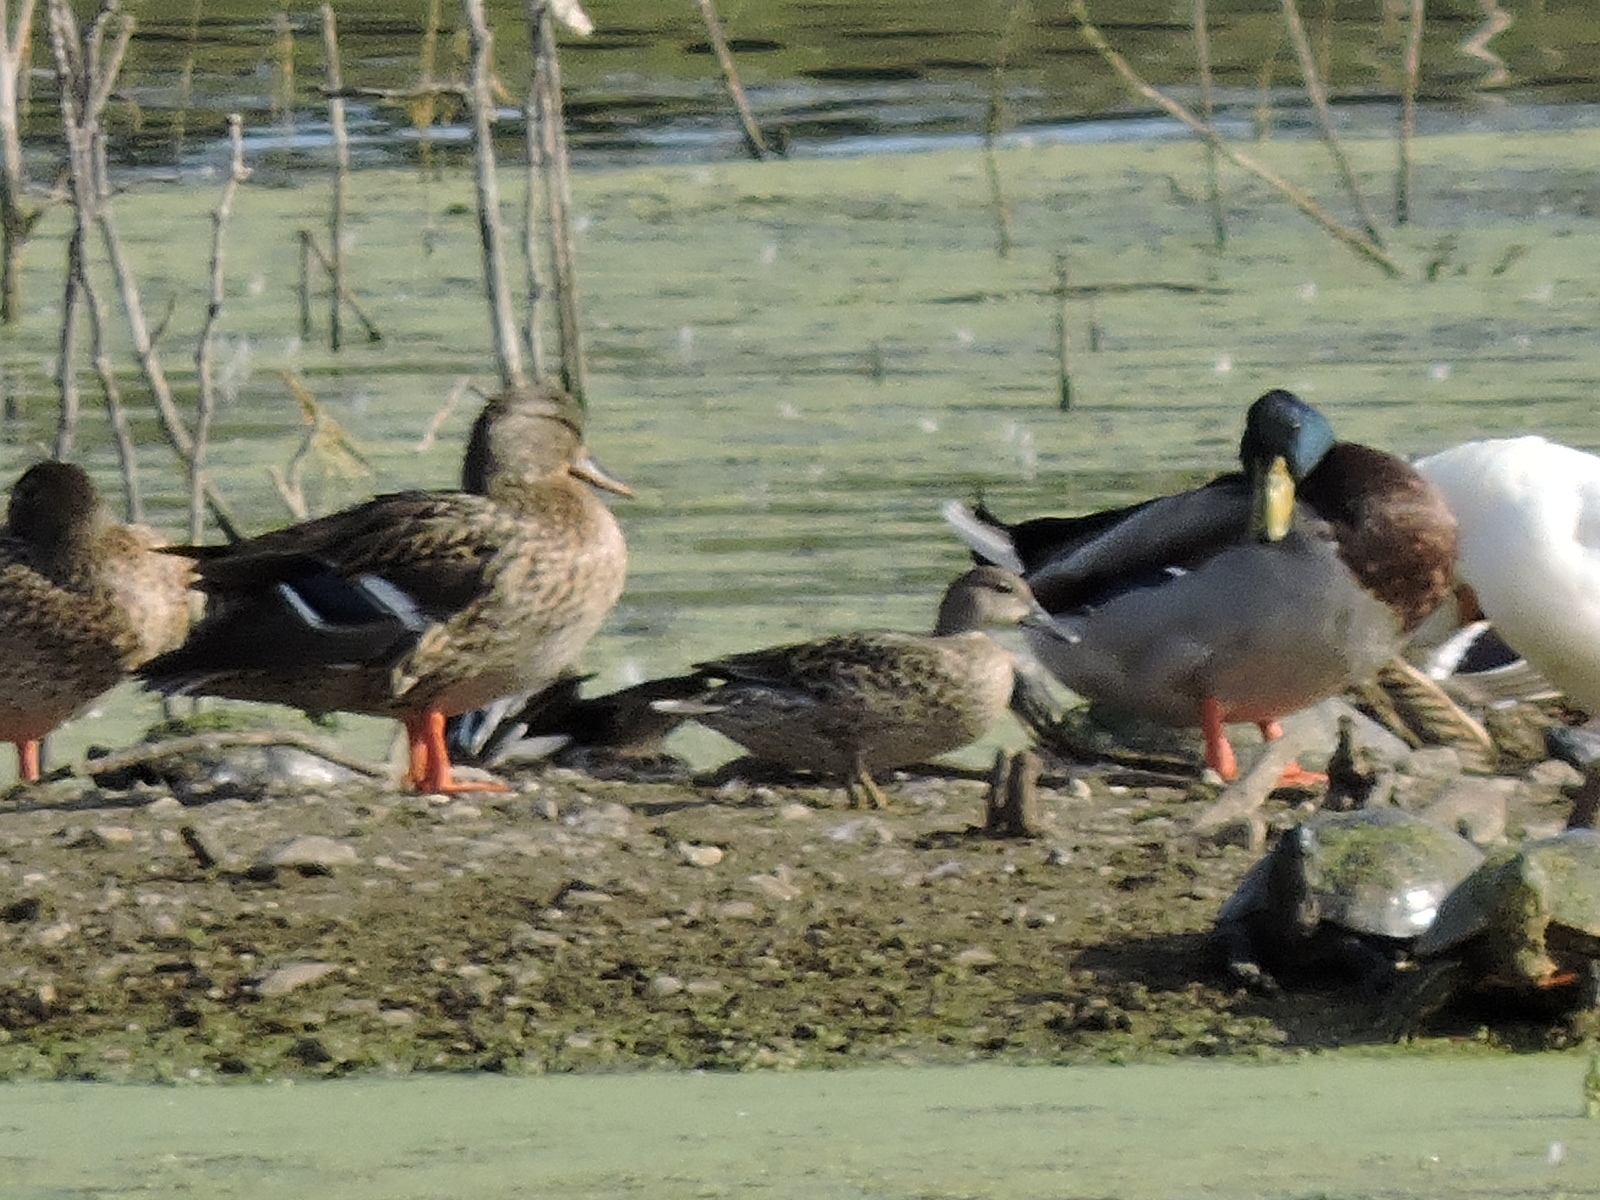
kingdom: Animalia
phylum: Chordata
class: Aves
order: Anseriformes
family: Anatidae
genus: Anas
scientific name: Anas platyrhynchos
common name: Mallard
